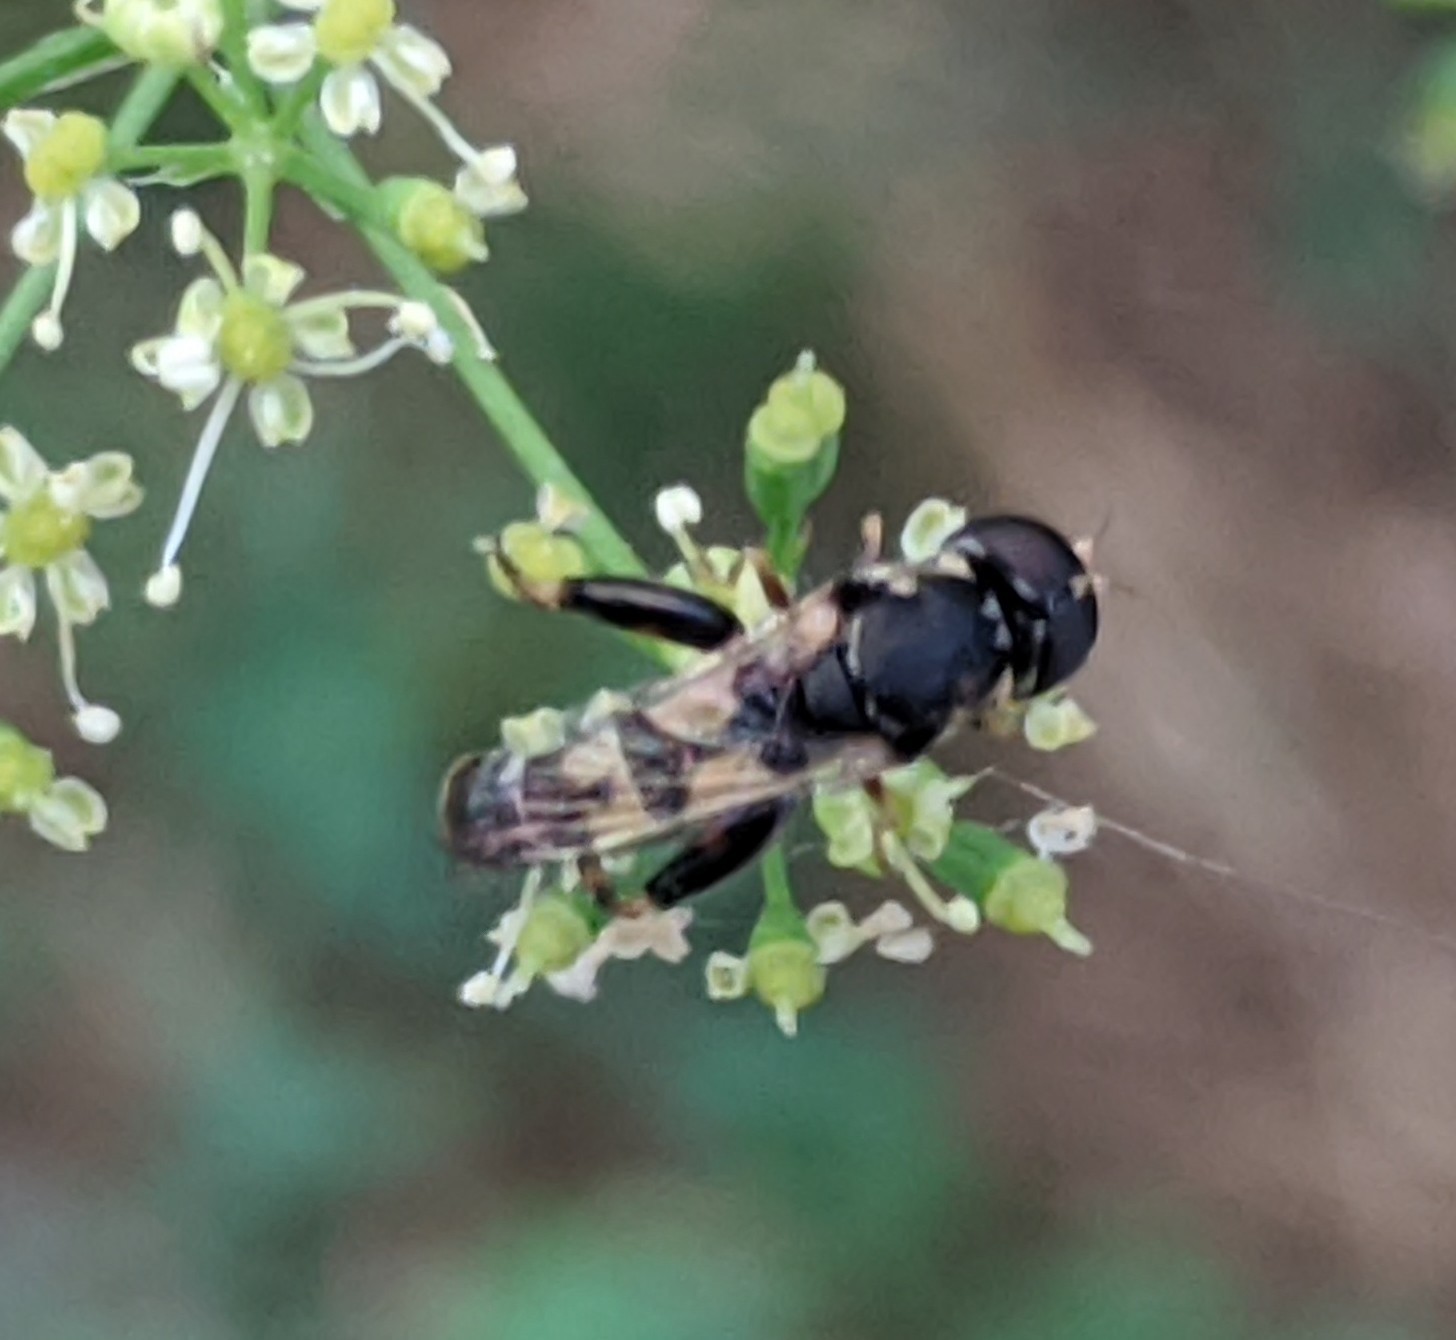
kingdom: Animalia
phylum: Arthropoda
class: Insecta
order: Diptera
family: Syrphidae
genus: Syritta
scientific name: Syritta pipiens
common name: Hover fly
